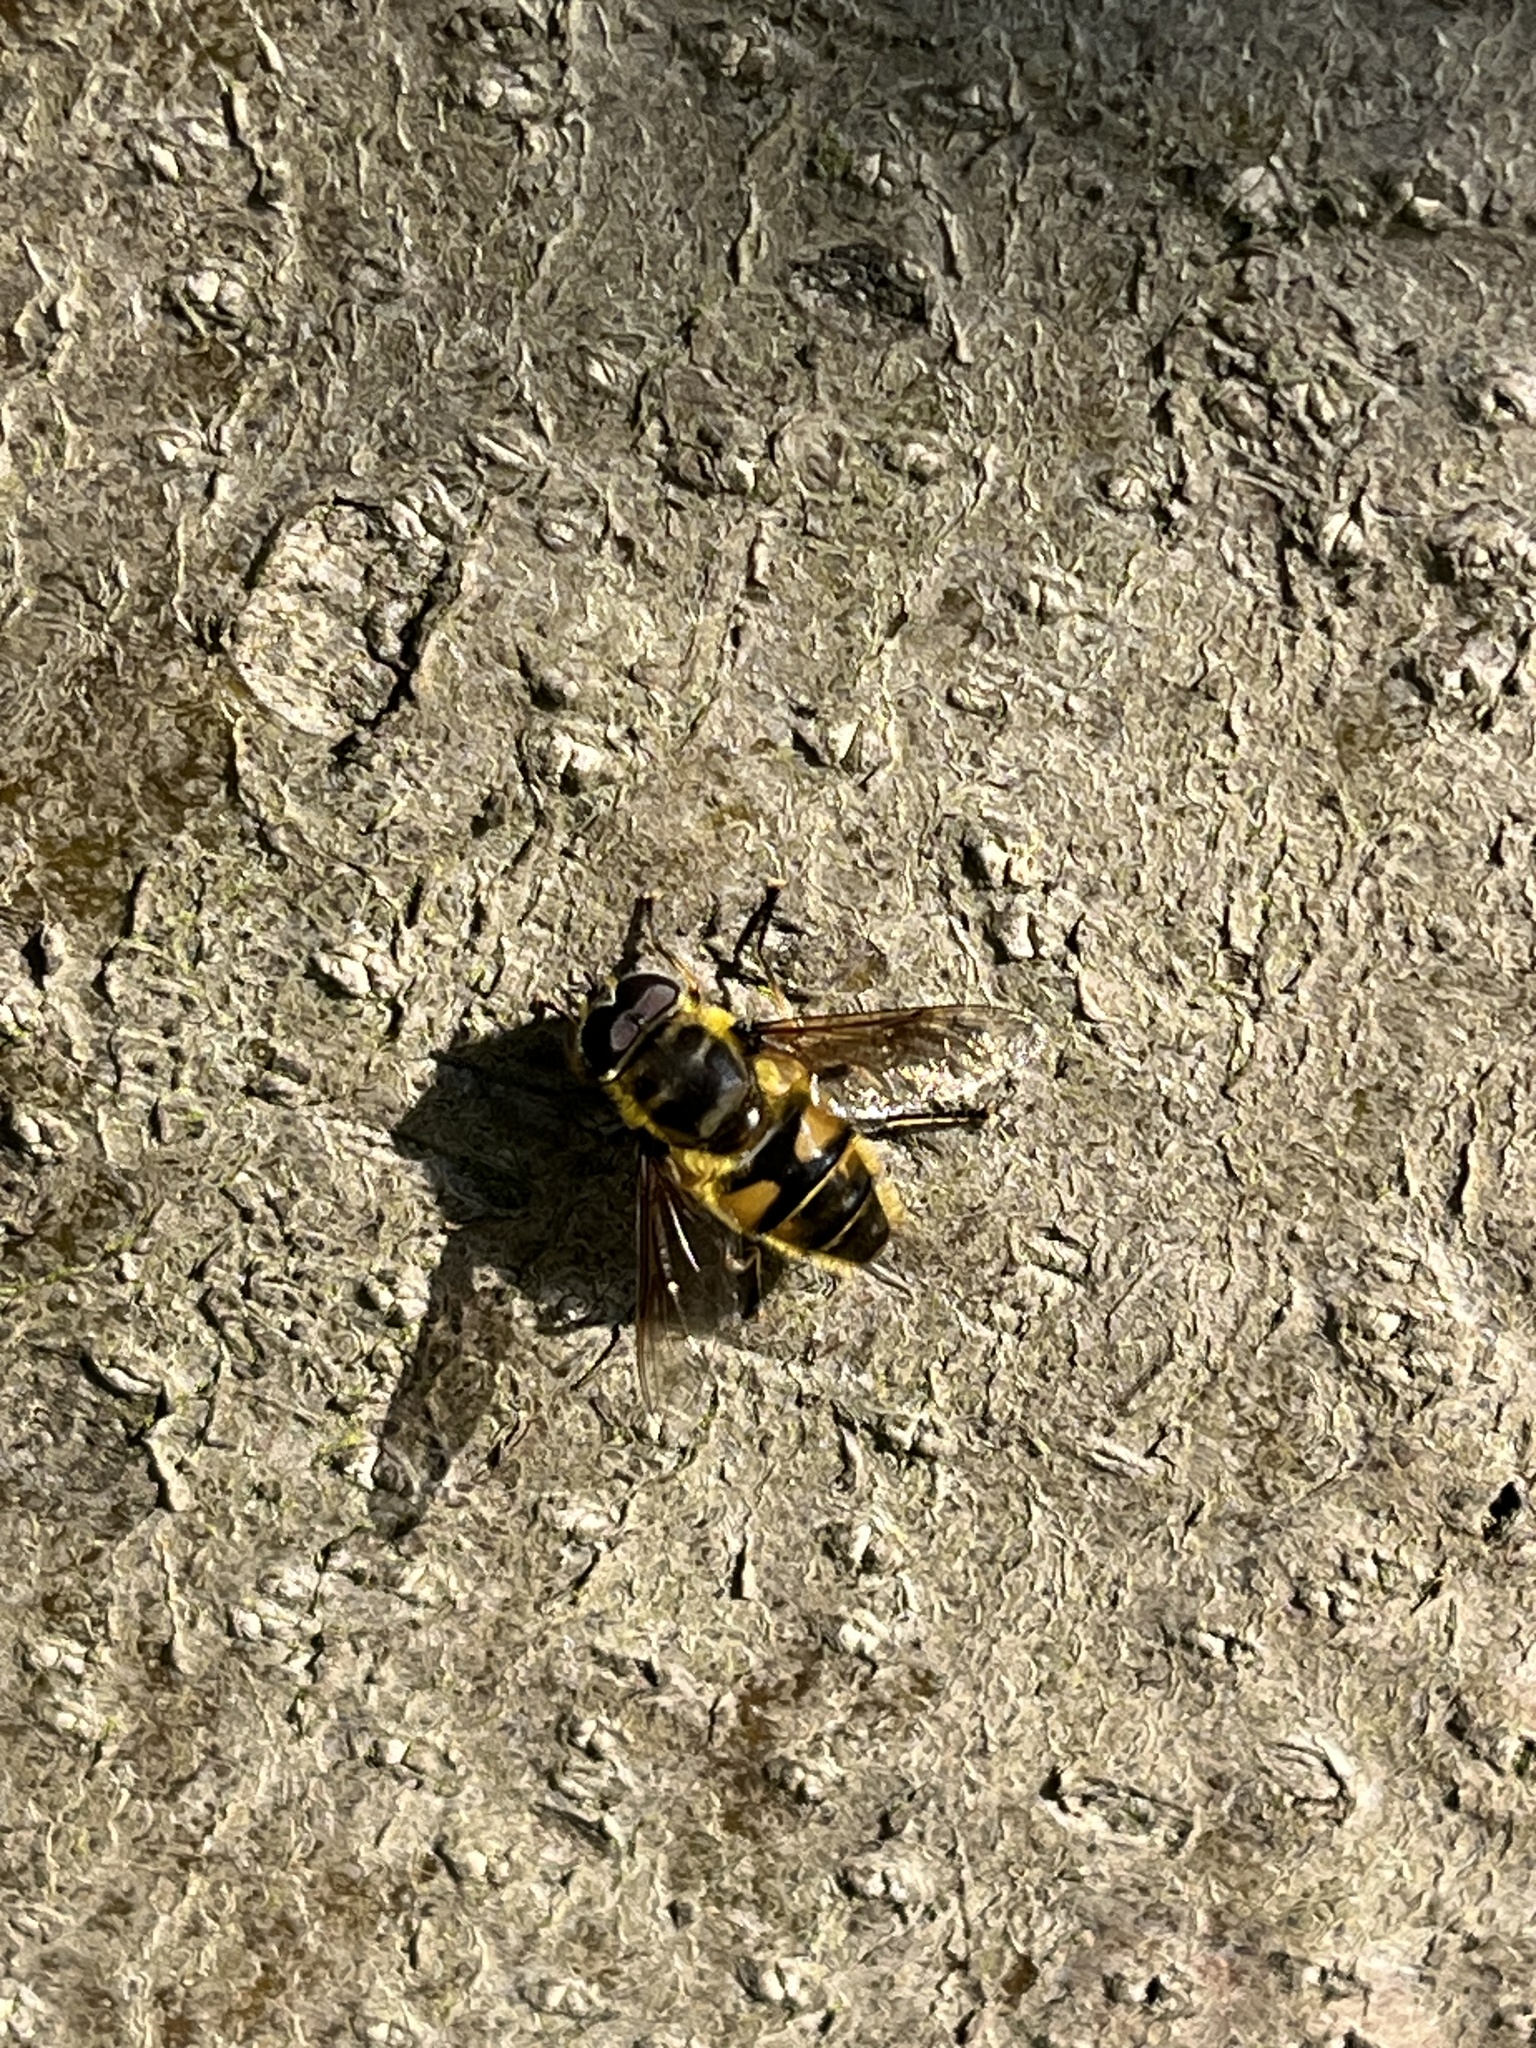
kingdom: Animalia
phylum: Arthropoda
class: Insecta
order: Diptera
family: Syrphidae
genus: Myathropa
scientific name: Myathropa florea
